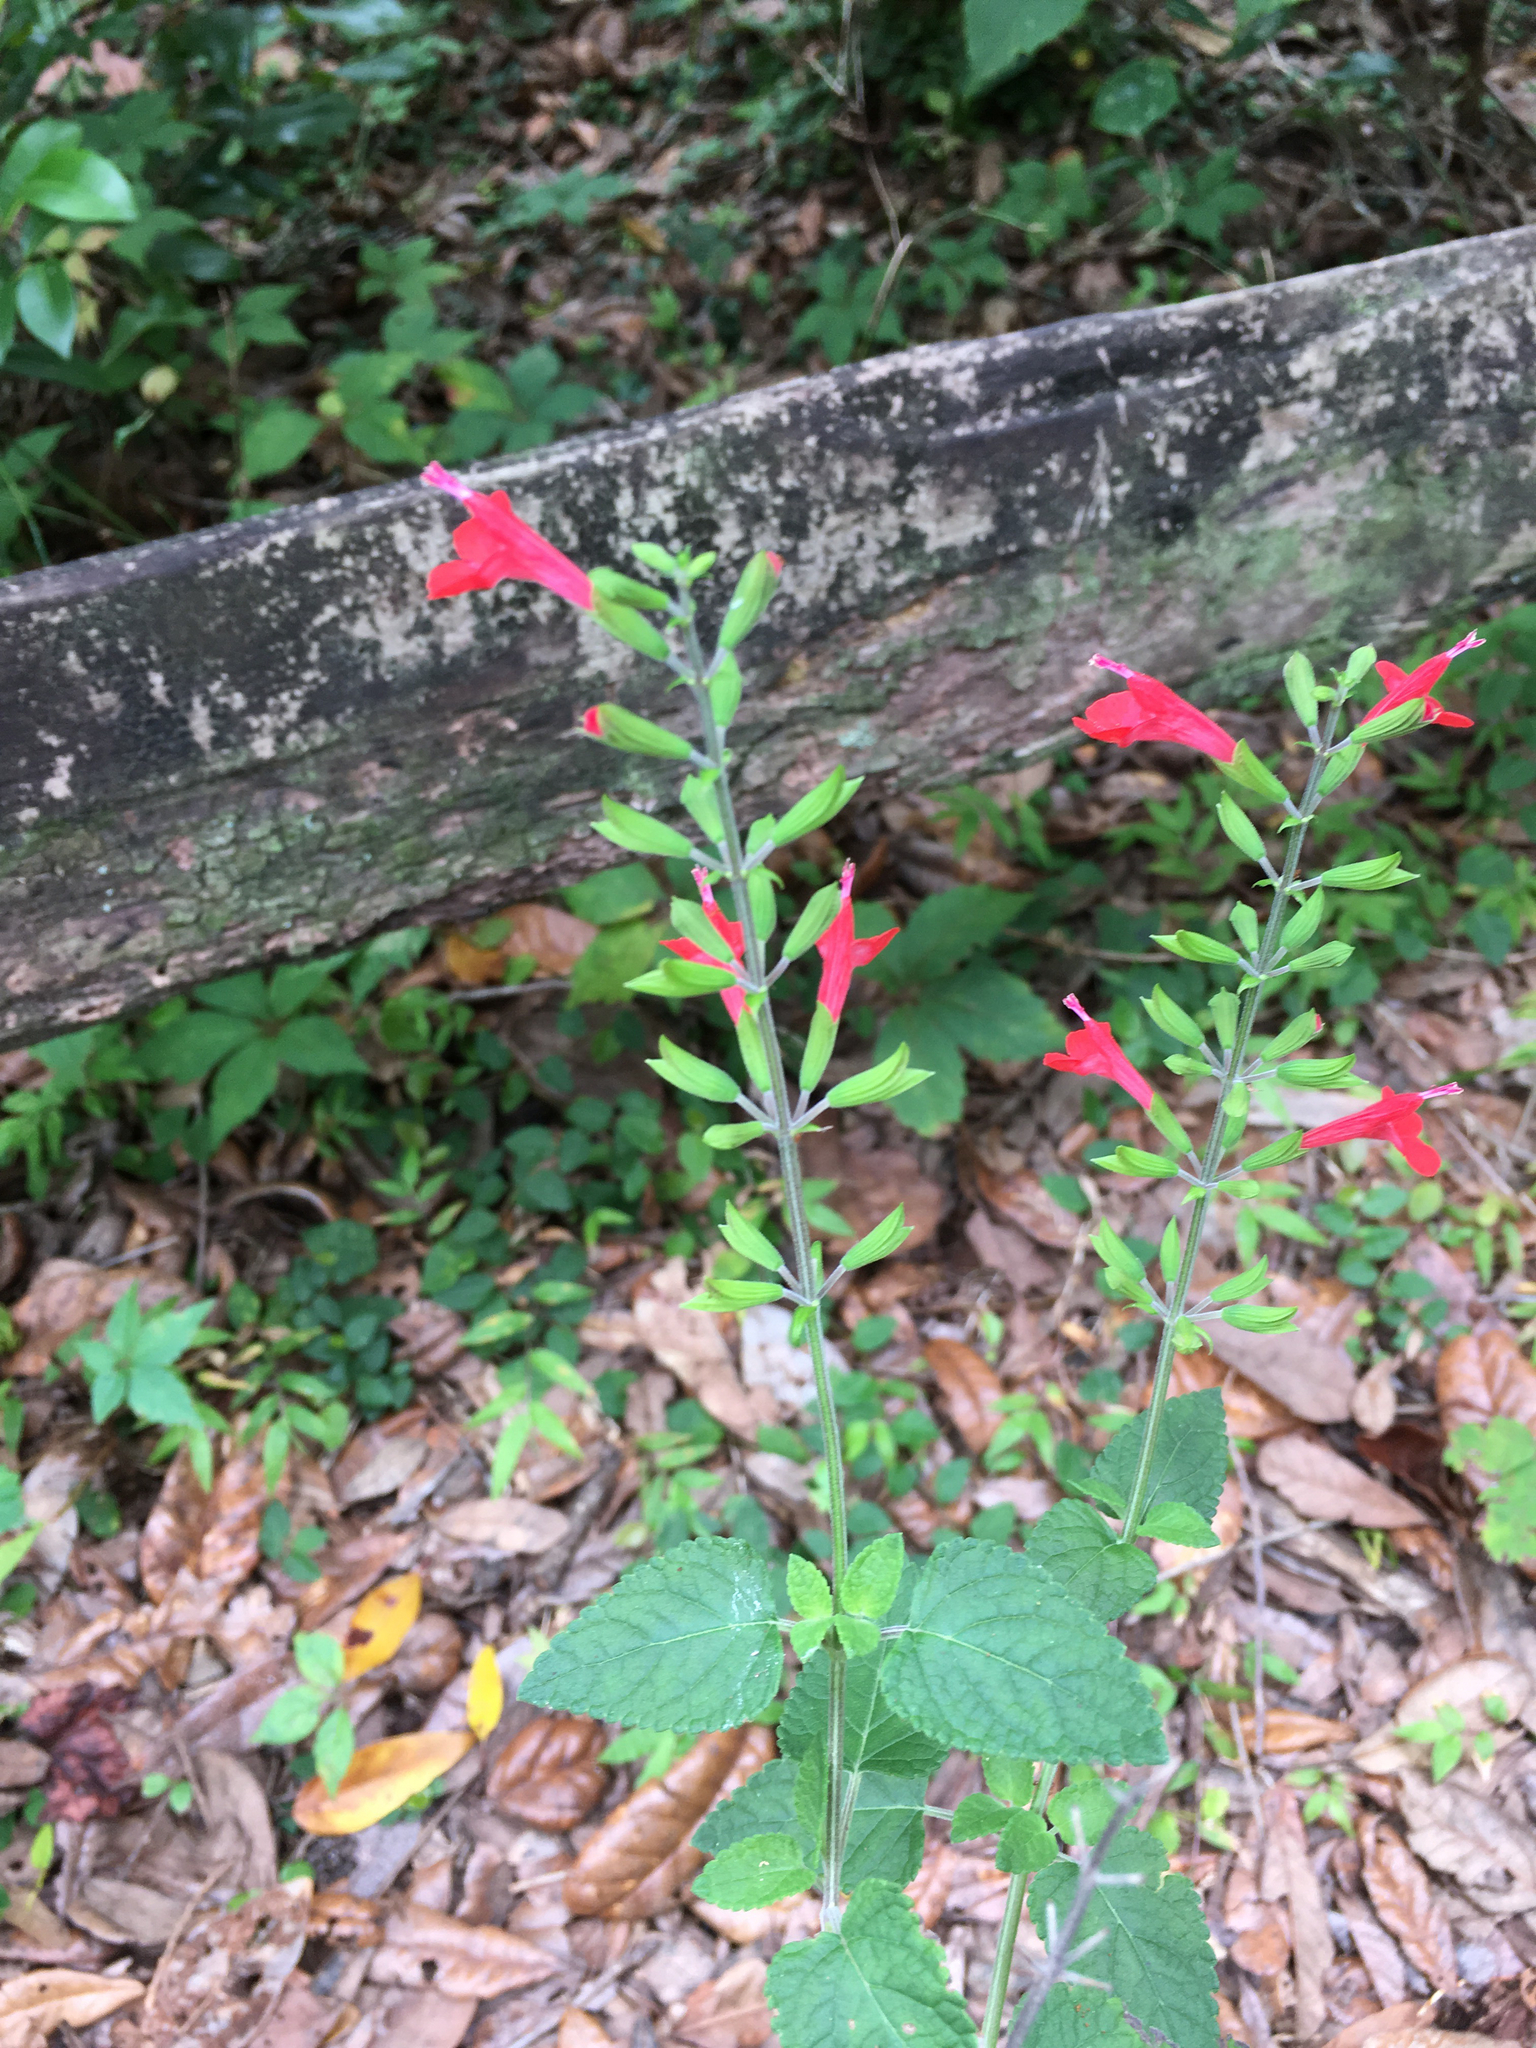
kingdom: Plantae
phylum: Tracheophyta
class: Magnoliopsida
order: Lamiales
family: Lamiaceae
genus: Salvia
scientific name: Salvia coccinea
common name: Blood sage
